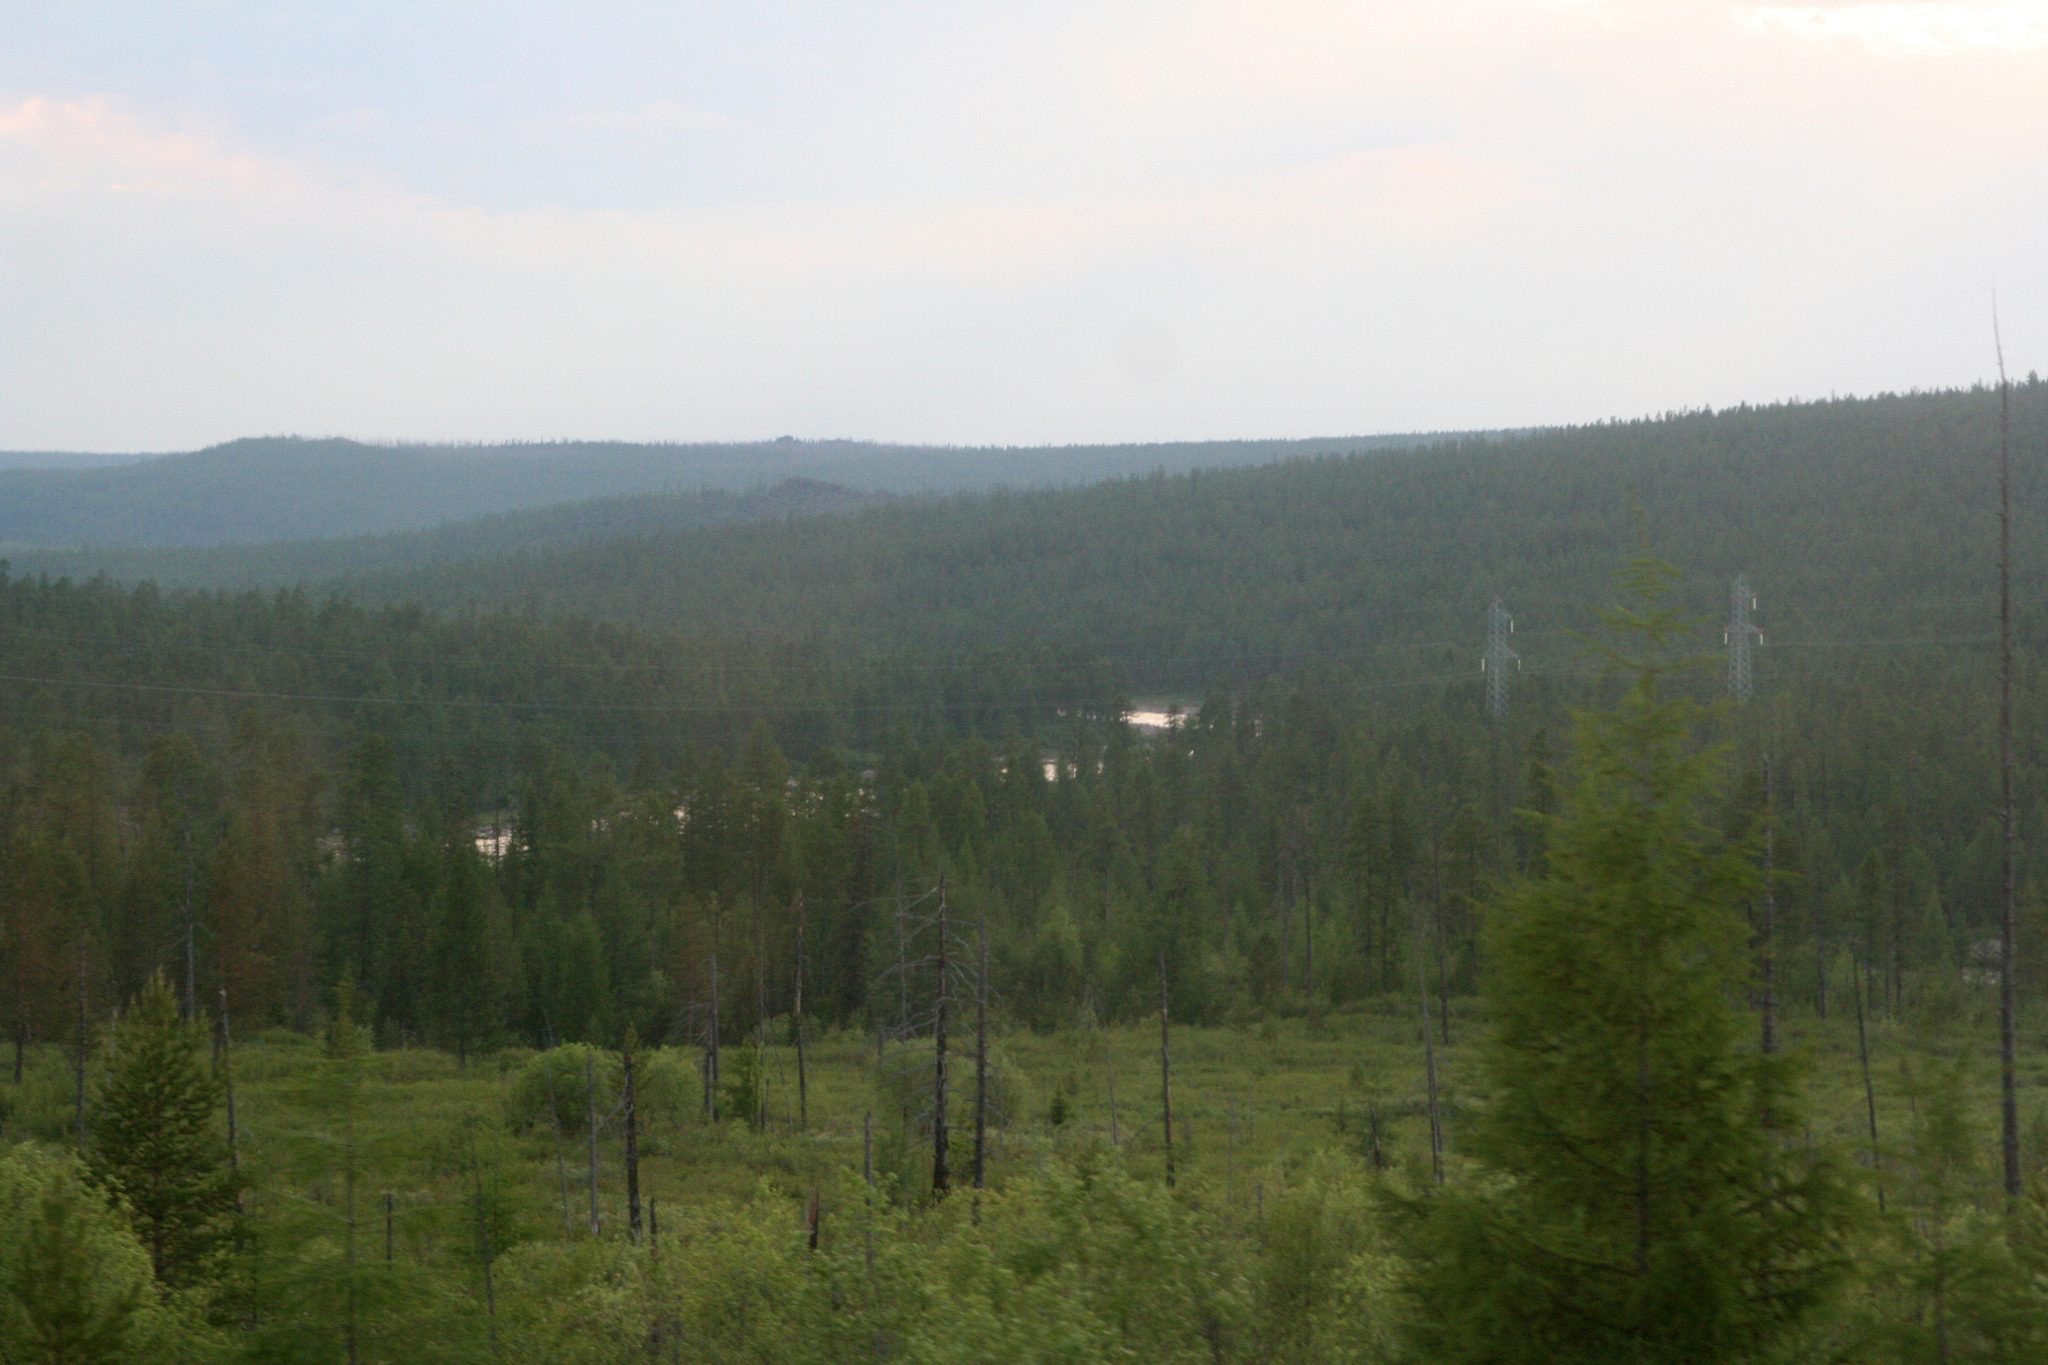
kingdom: Plantae
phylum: Tracheophyta
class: Pinopsida
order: Pinales
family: Pinaceae
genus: Larix
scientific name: Larix gmelinii
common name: Dahurian larch
